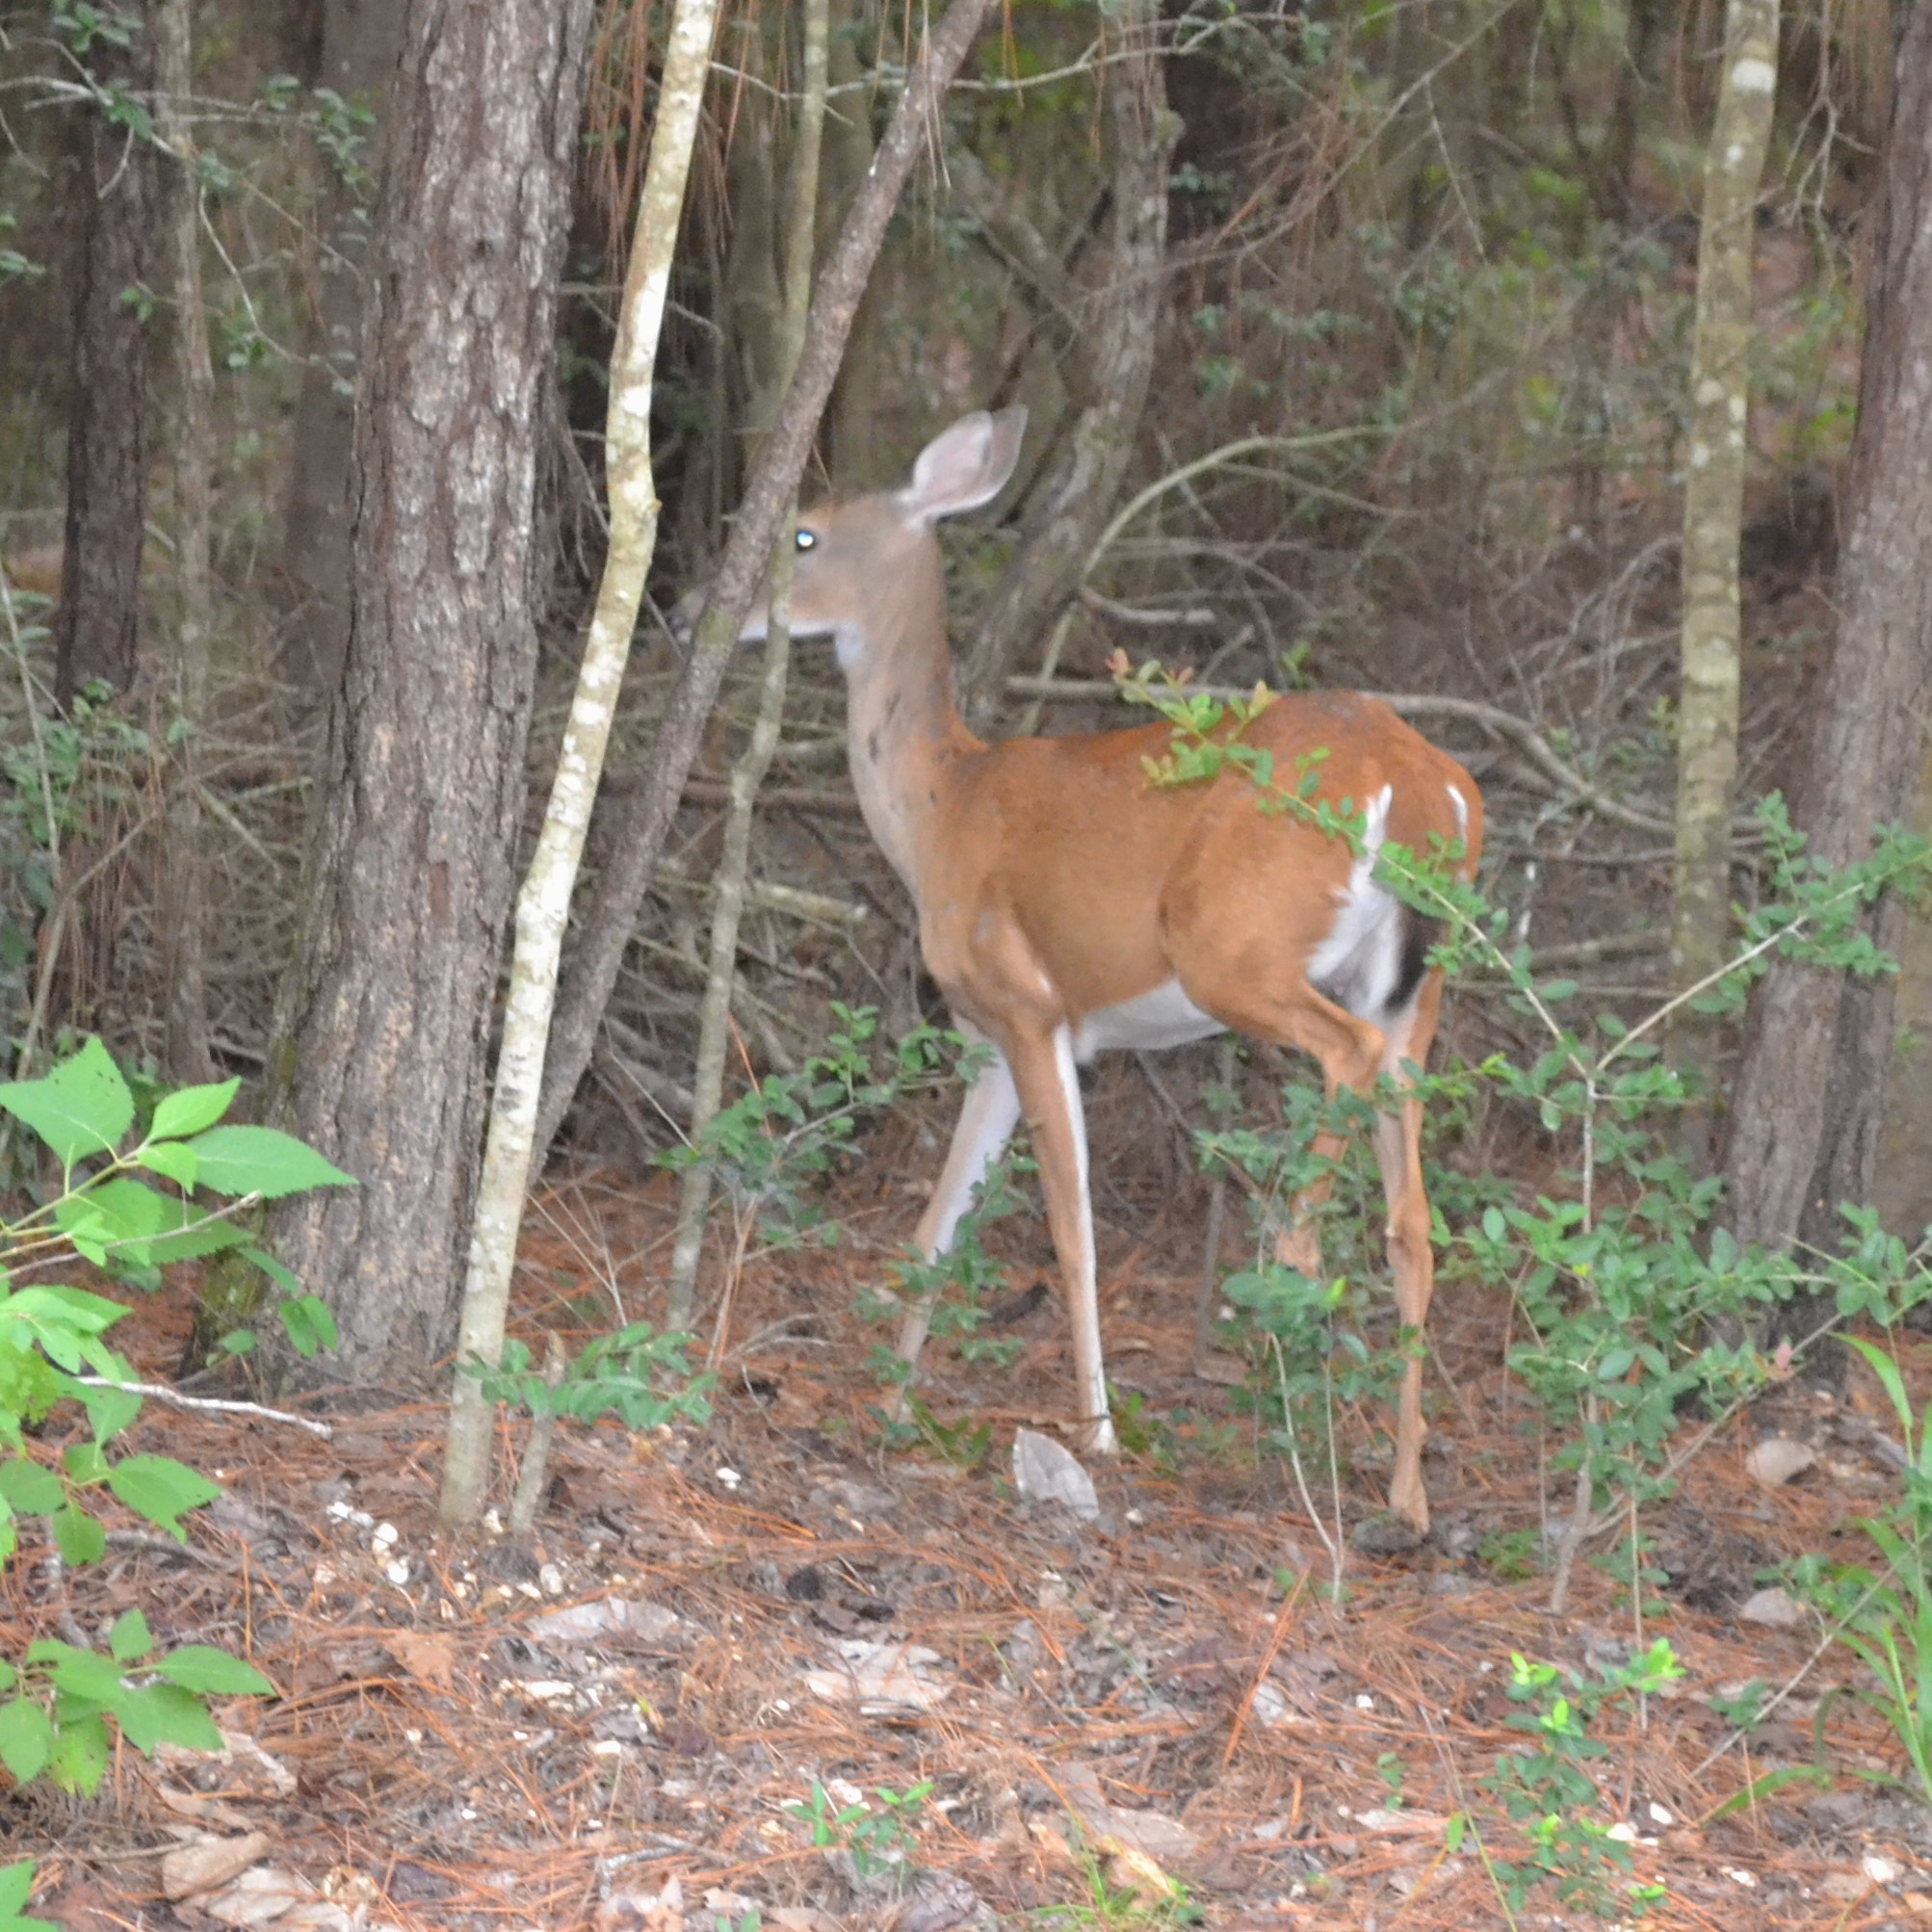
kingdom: Animalia
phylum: Chordata
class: Mammalia
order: Artiodactyla
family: Cervidae
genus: Odocoileus
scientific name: Odocoileus virginianus
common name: White-tailed deer
